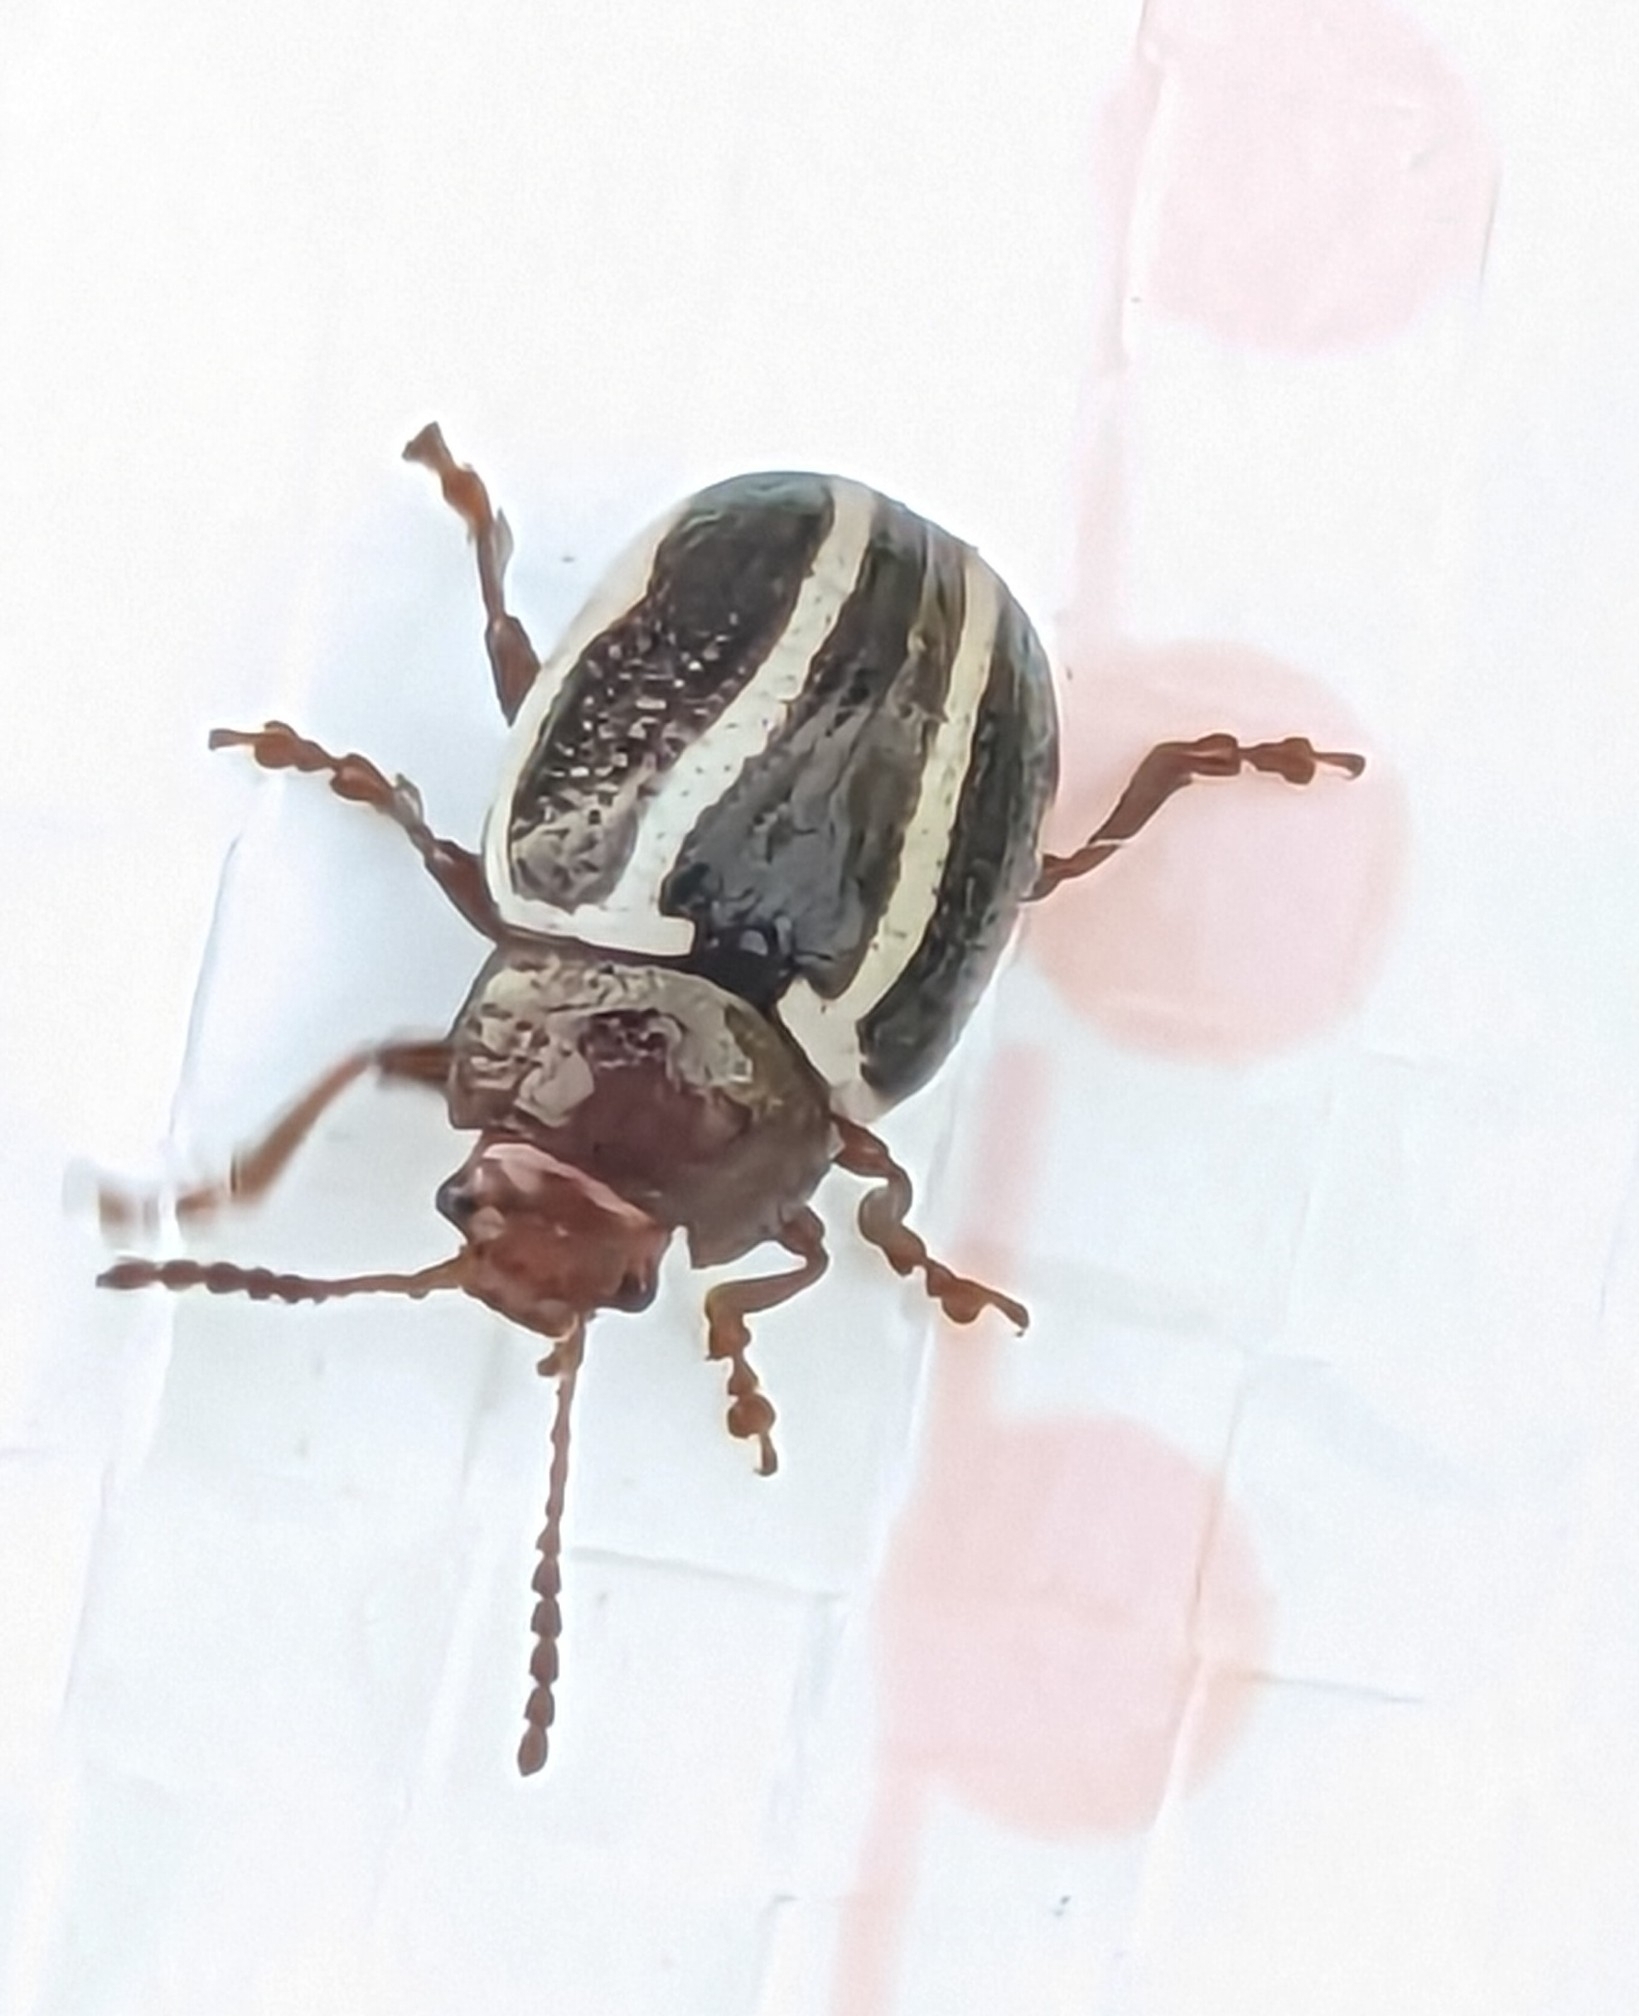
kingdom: Animalia
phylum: Arthropoda
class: Insecta
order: Coleoptera
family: Chrysomelidae
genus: Calligrapha
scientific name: Calligrapha bidenticola
